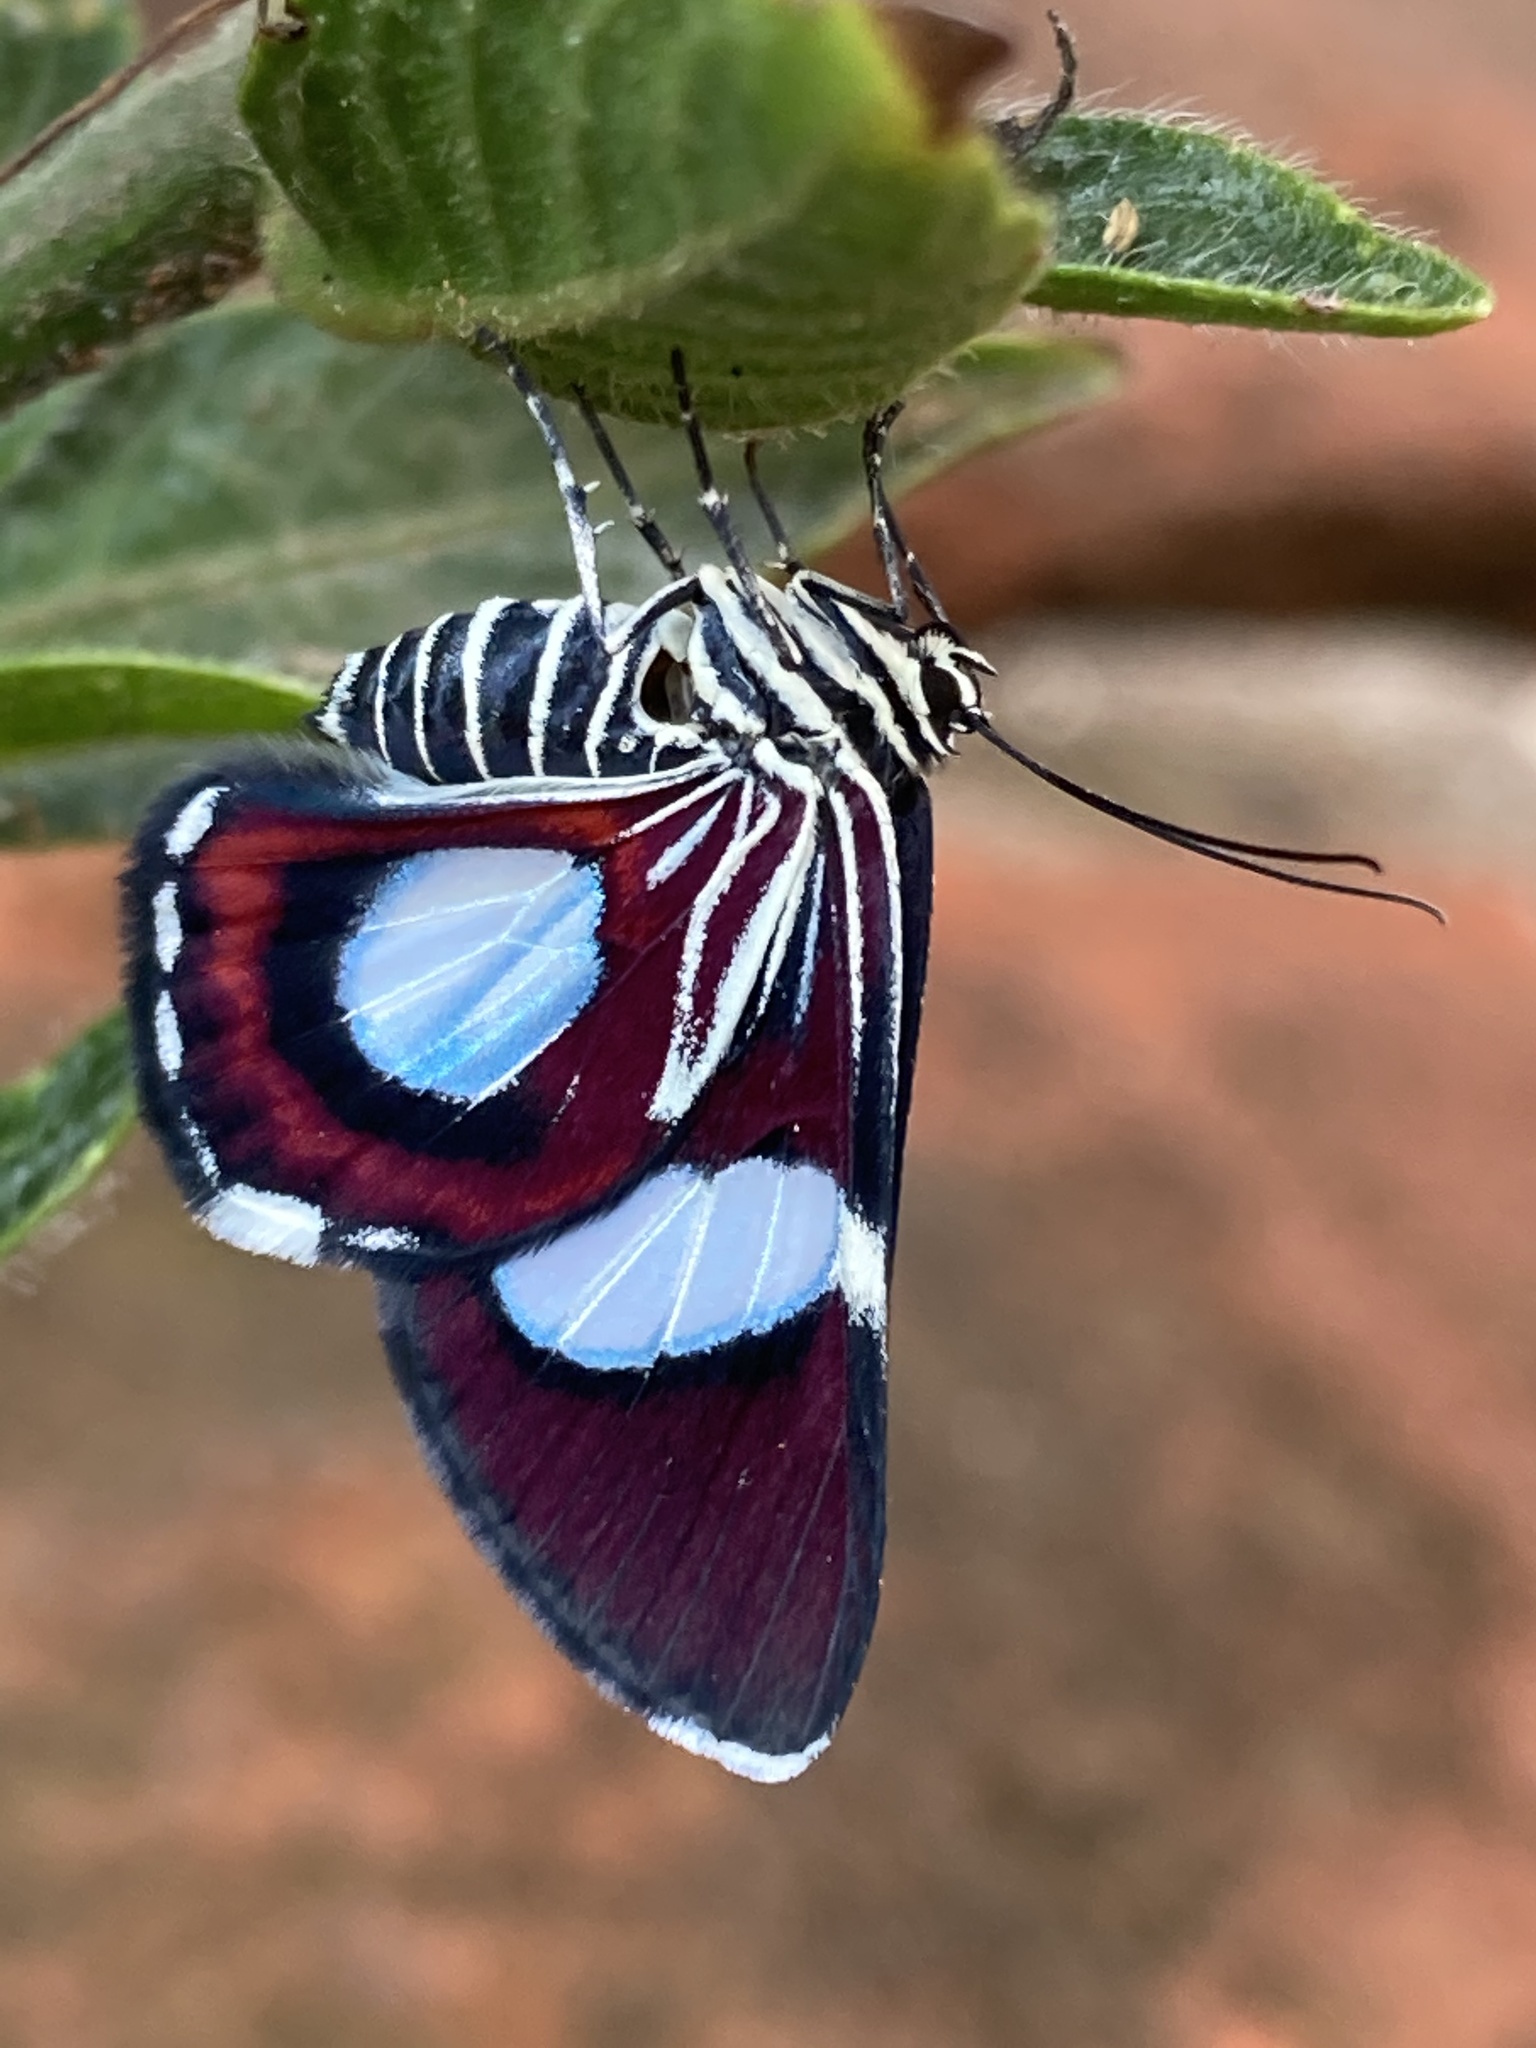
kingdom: Animalia
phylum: Arthropoda
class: Insecta
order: Lepidoptera
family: Geometridae
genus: Trocherateina
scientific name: Trocherateina specularia
